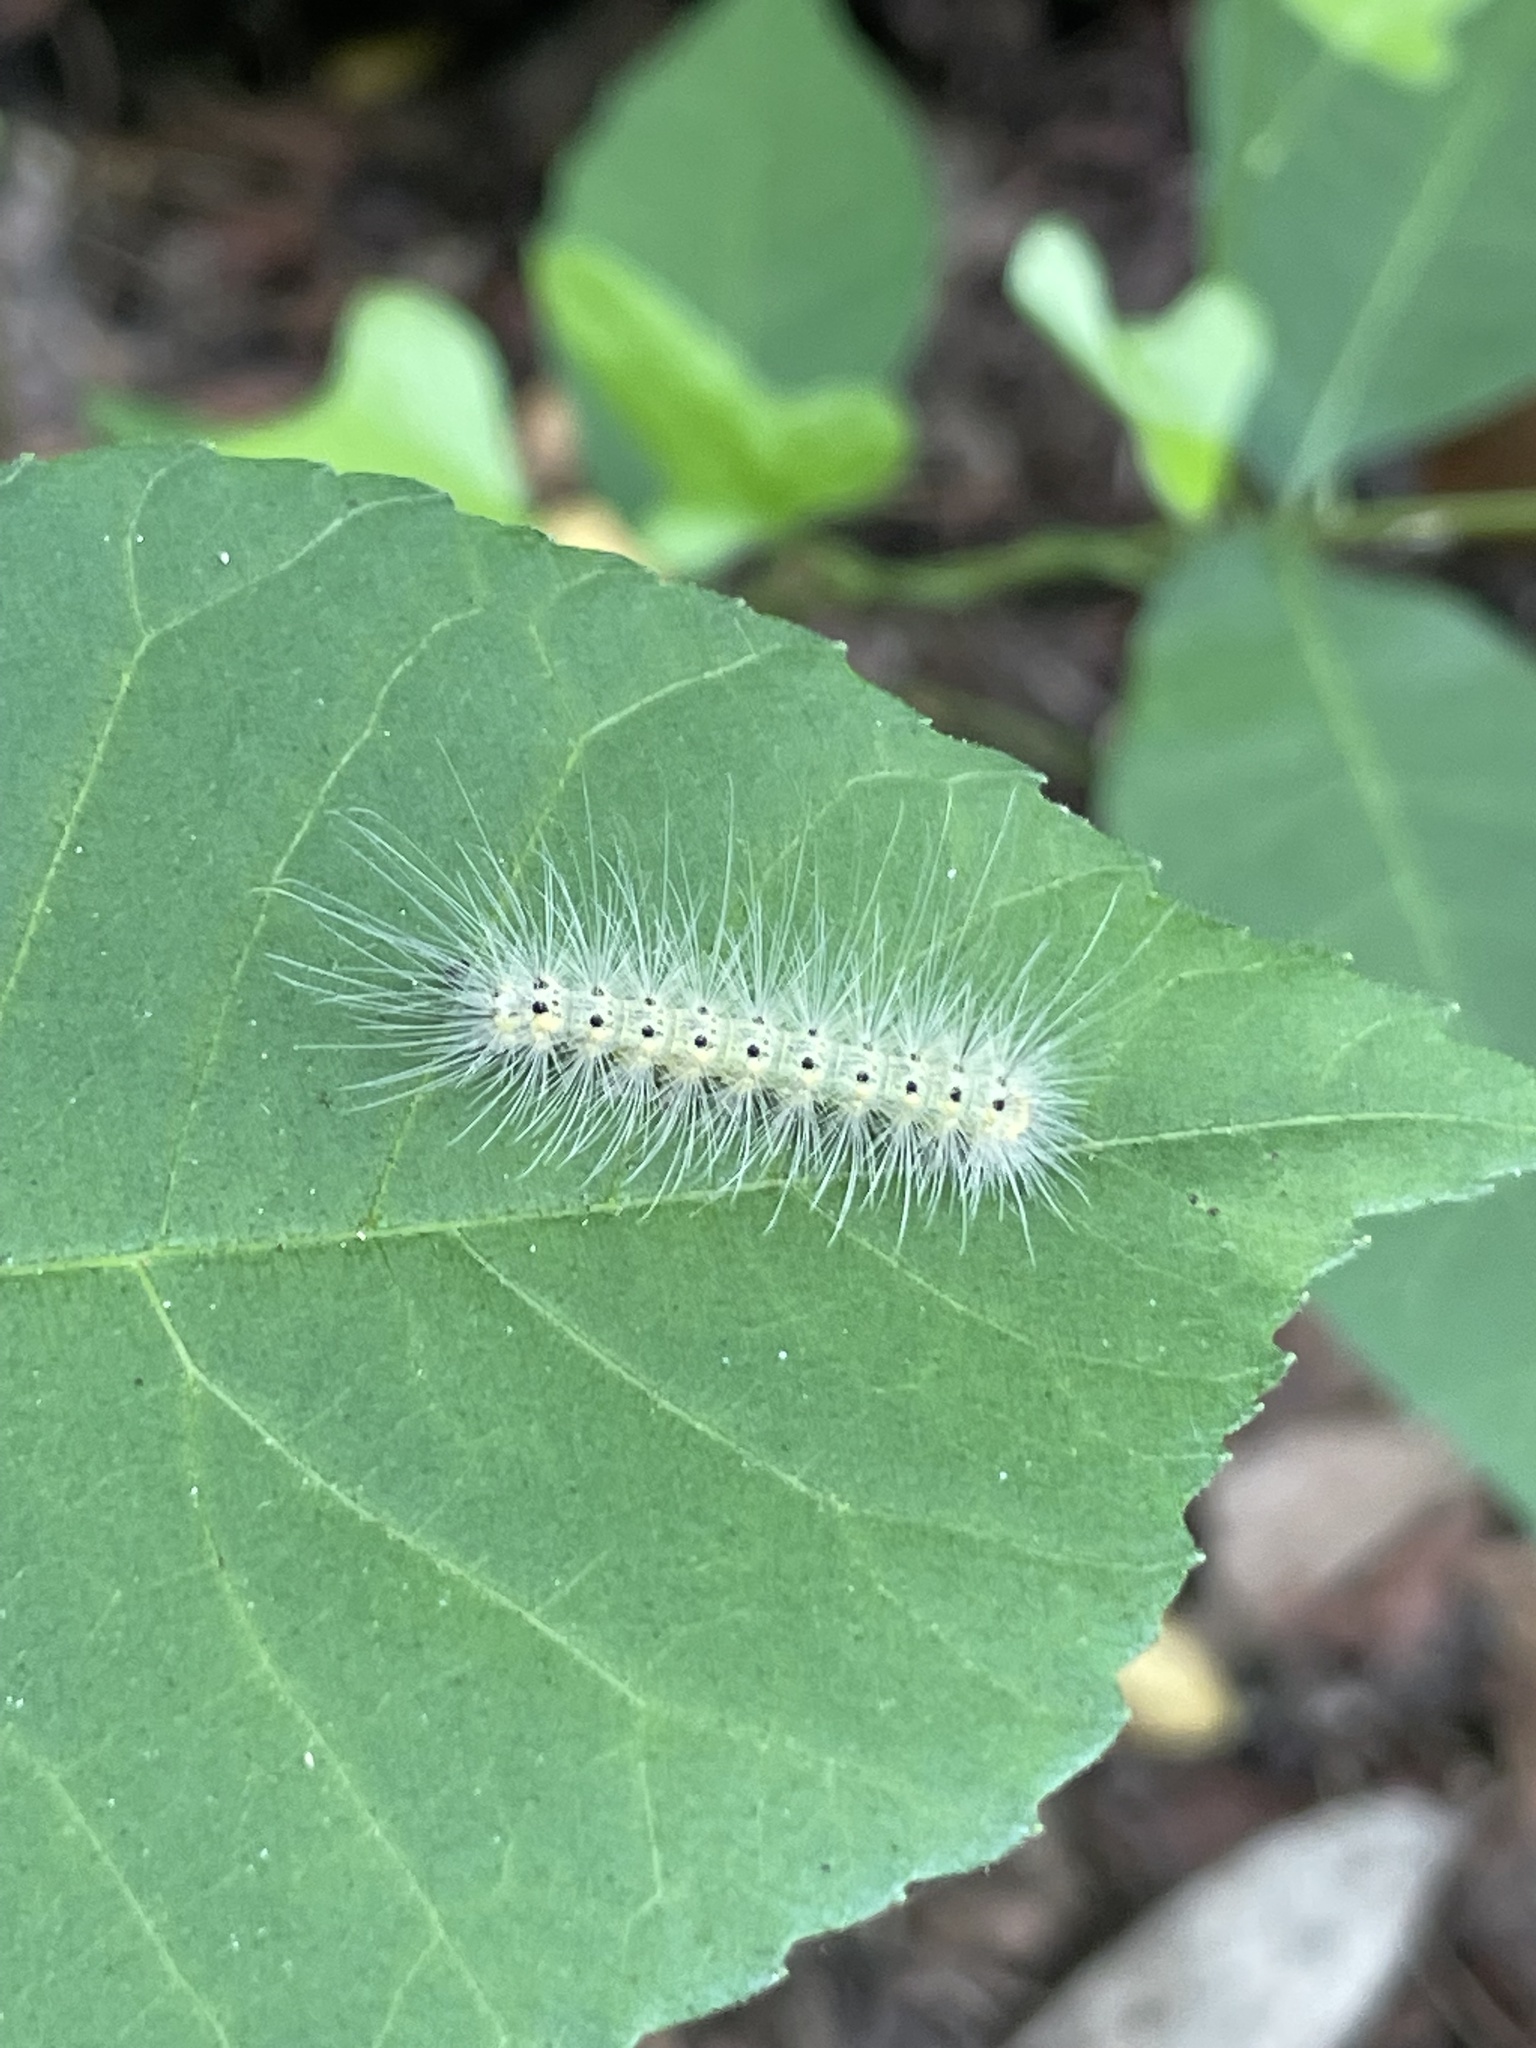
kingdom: Animalia
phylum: Arthropoda
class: Insecta
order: Lepidoptera
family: Erebidae
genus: Hyphantria
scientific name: Hyphantria cunea
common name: American white moth
